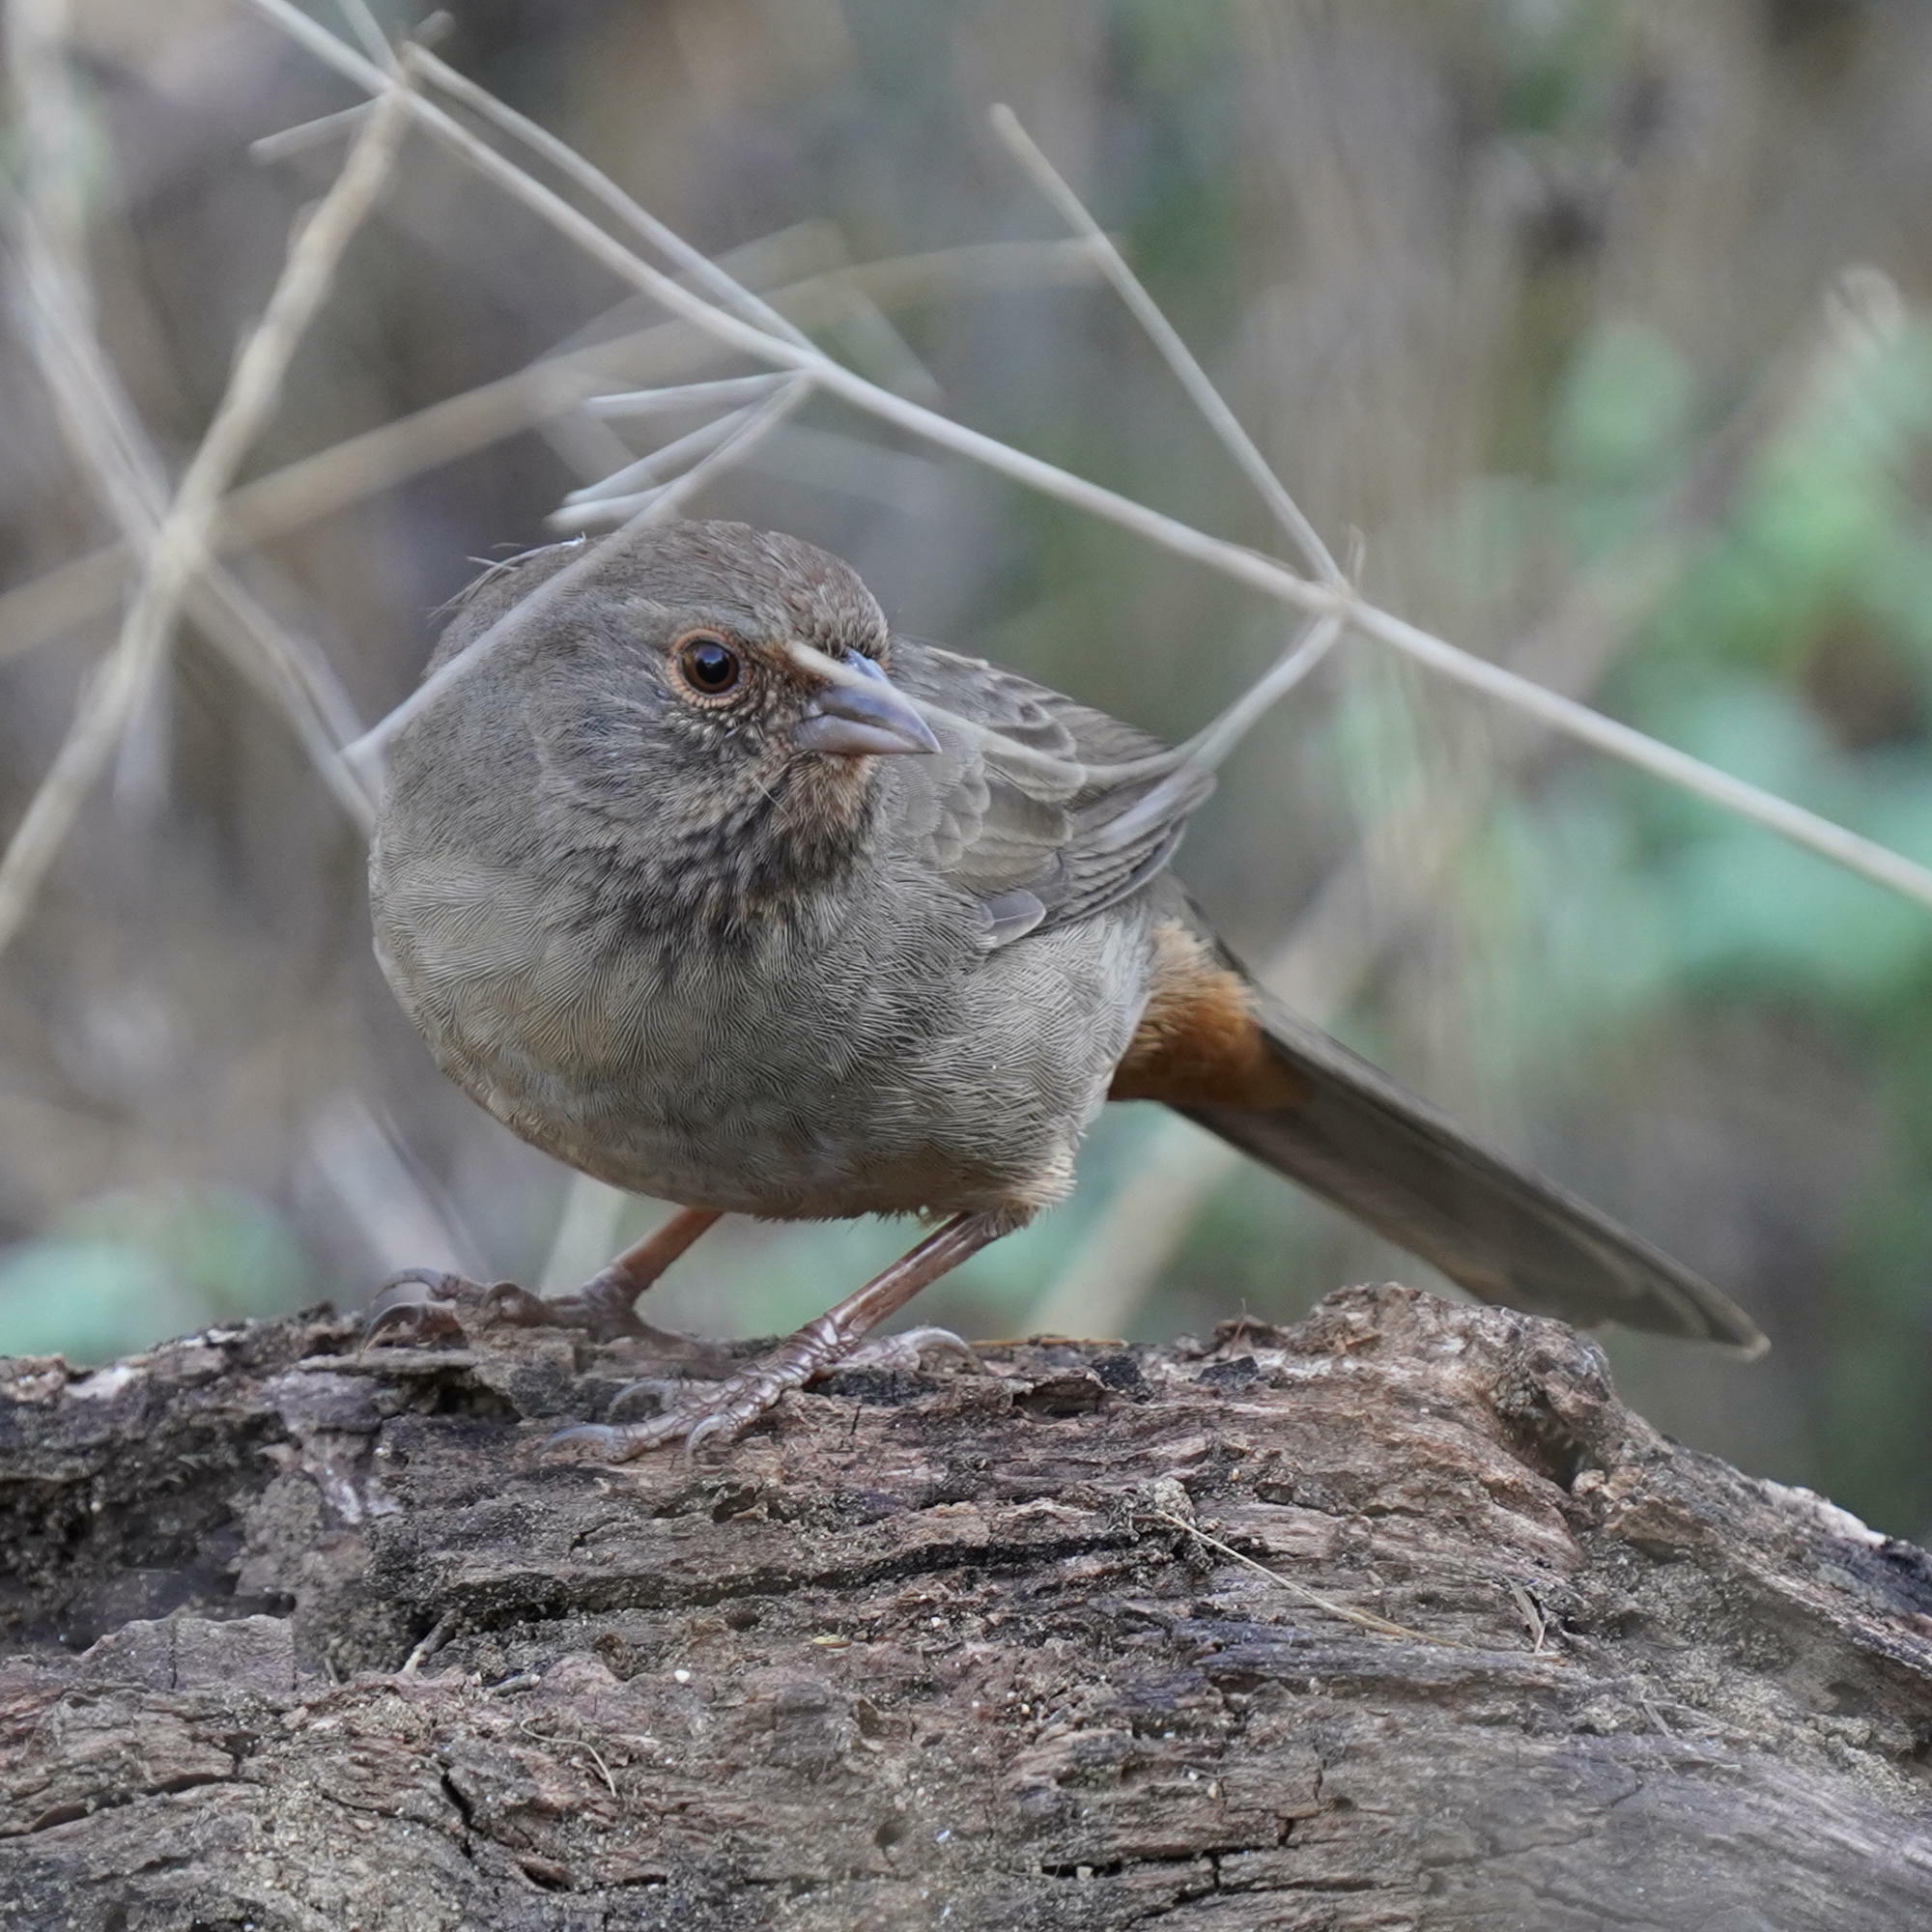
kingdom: Animalia
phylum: Chordata
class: Aves
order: Passeriformes
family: Passerellidae
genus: Melozone
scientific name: Melozone crissalis
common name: California towhee
